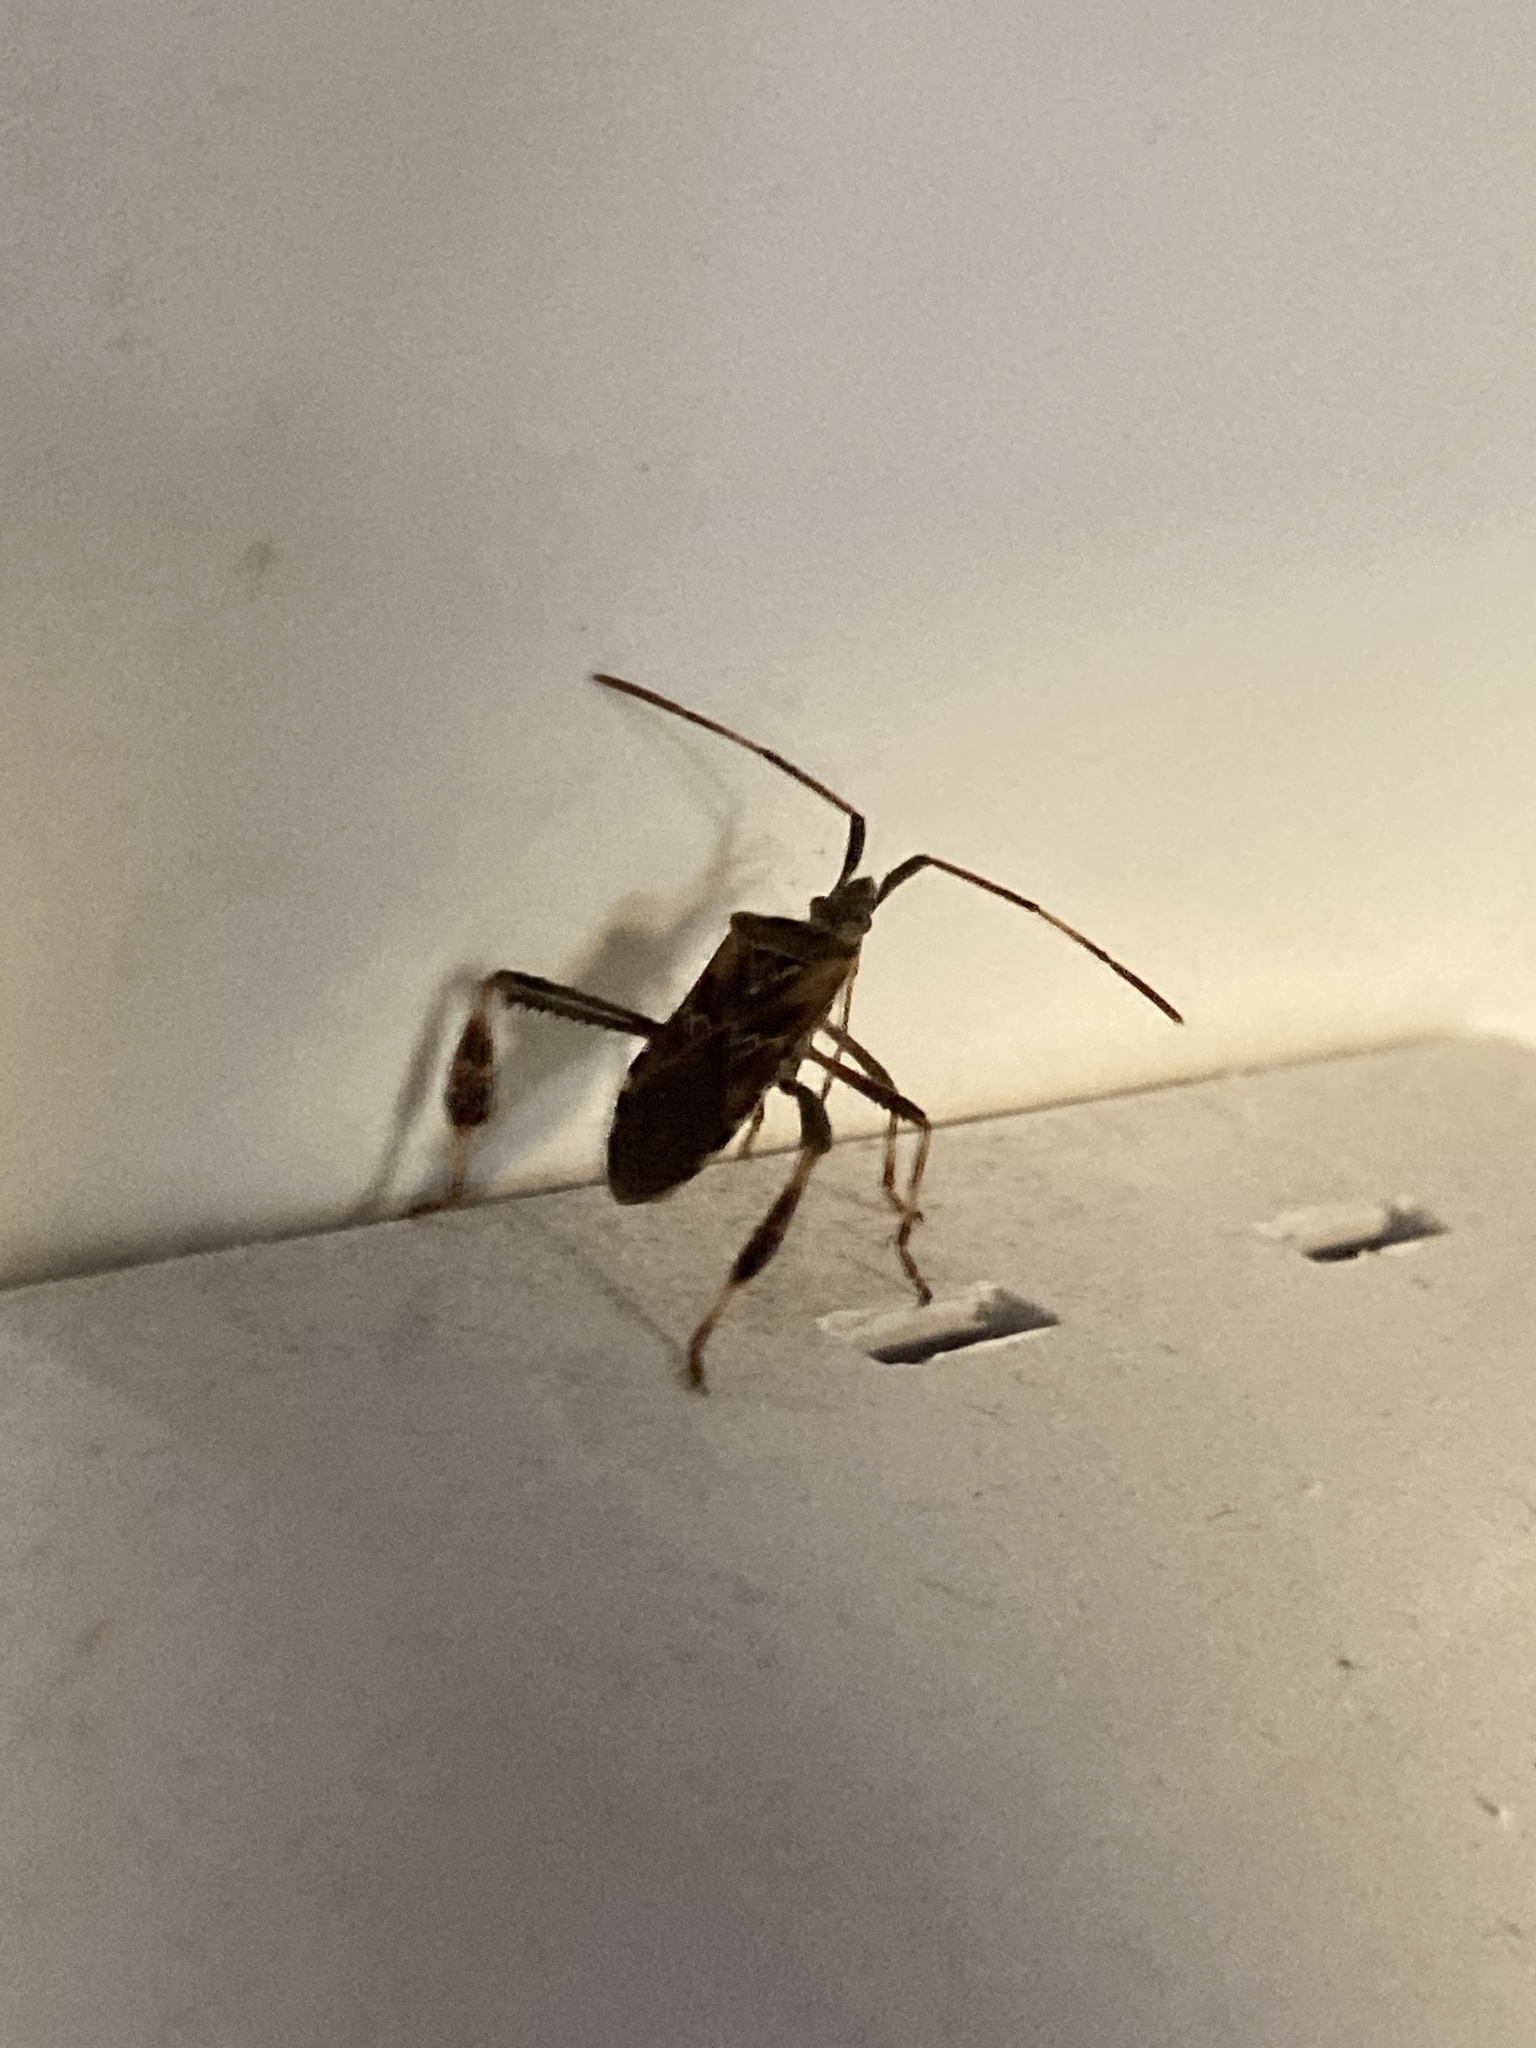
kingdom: Animalia
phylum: Arthropoda
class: Insecta
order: Hemiptera
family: Coreidae
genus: Leptoglossus
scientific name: Leptoglossus occidentalis
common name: Western conifer-seed bug
